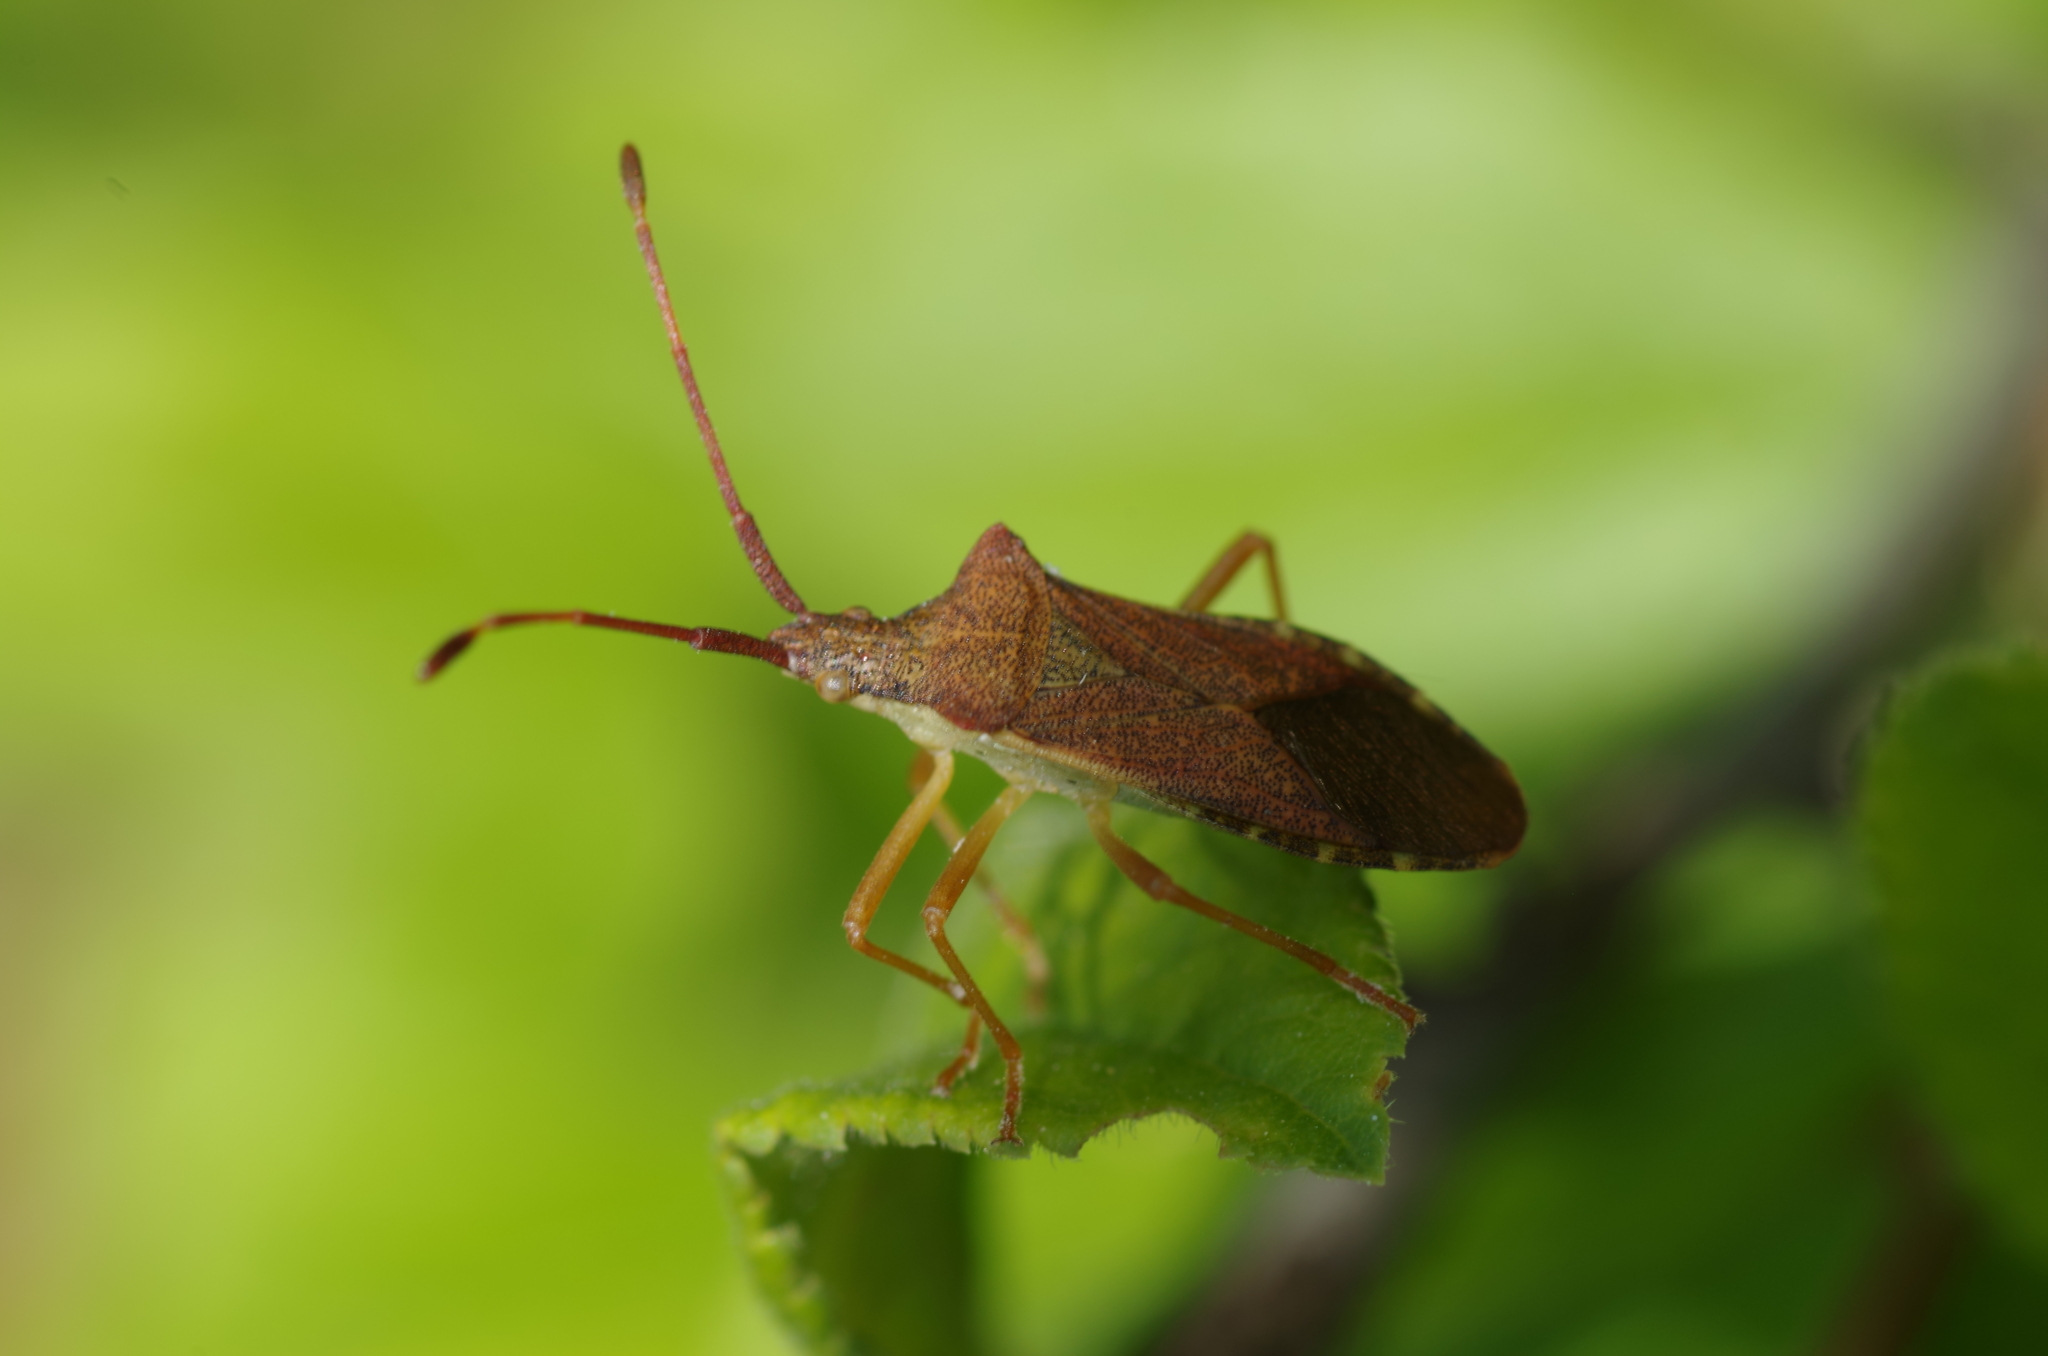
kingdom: Animalia
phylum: Arthropoda
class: Insecta
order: Hemiptera
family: Coreidae
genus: Gonocerus
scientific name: Gonocerus acuteangulatus
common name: Box bug
